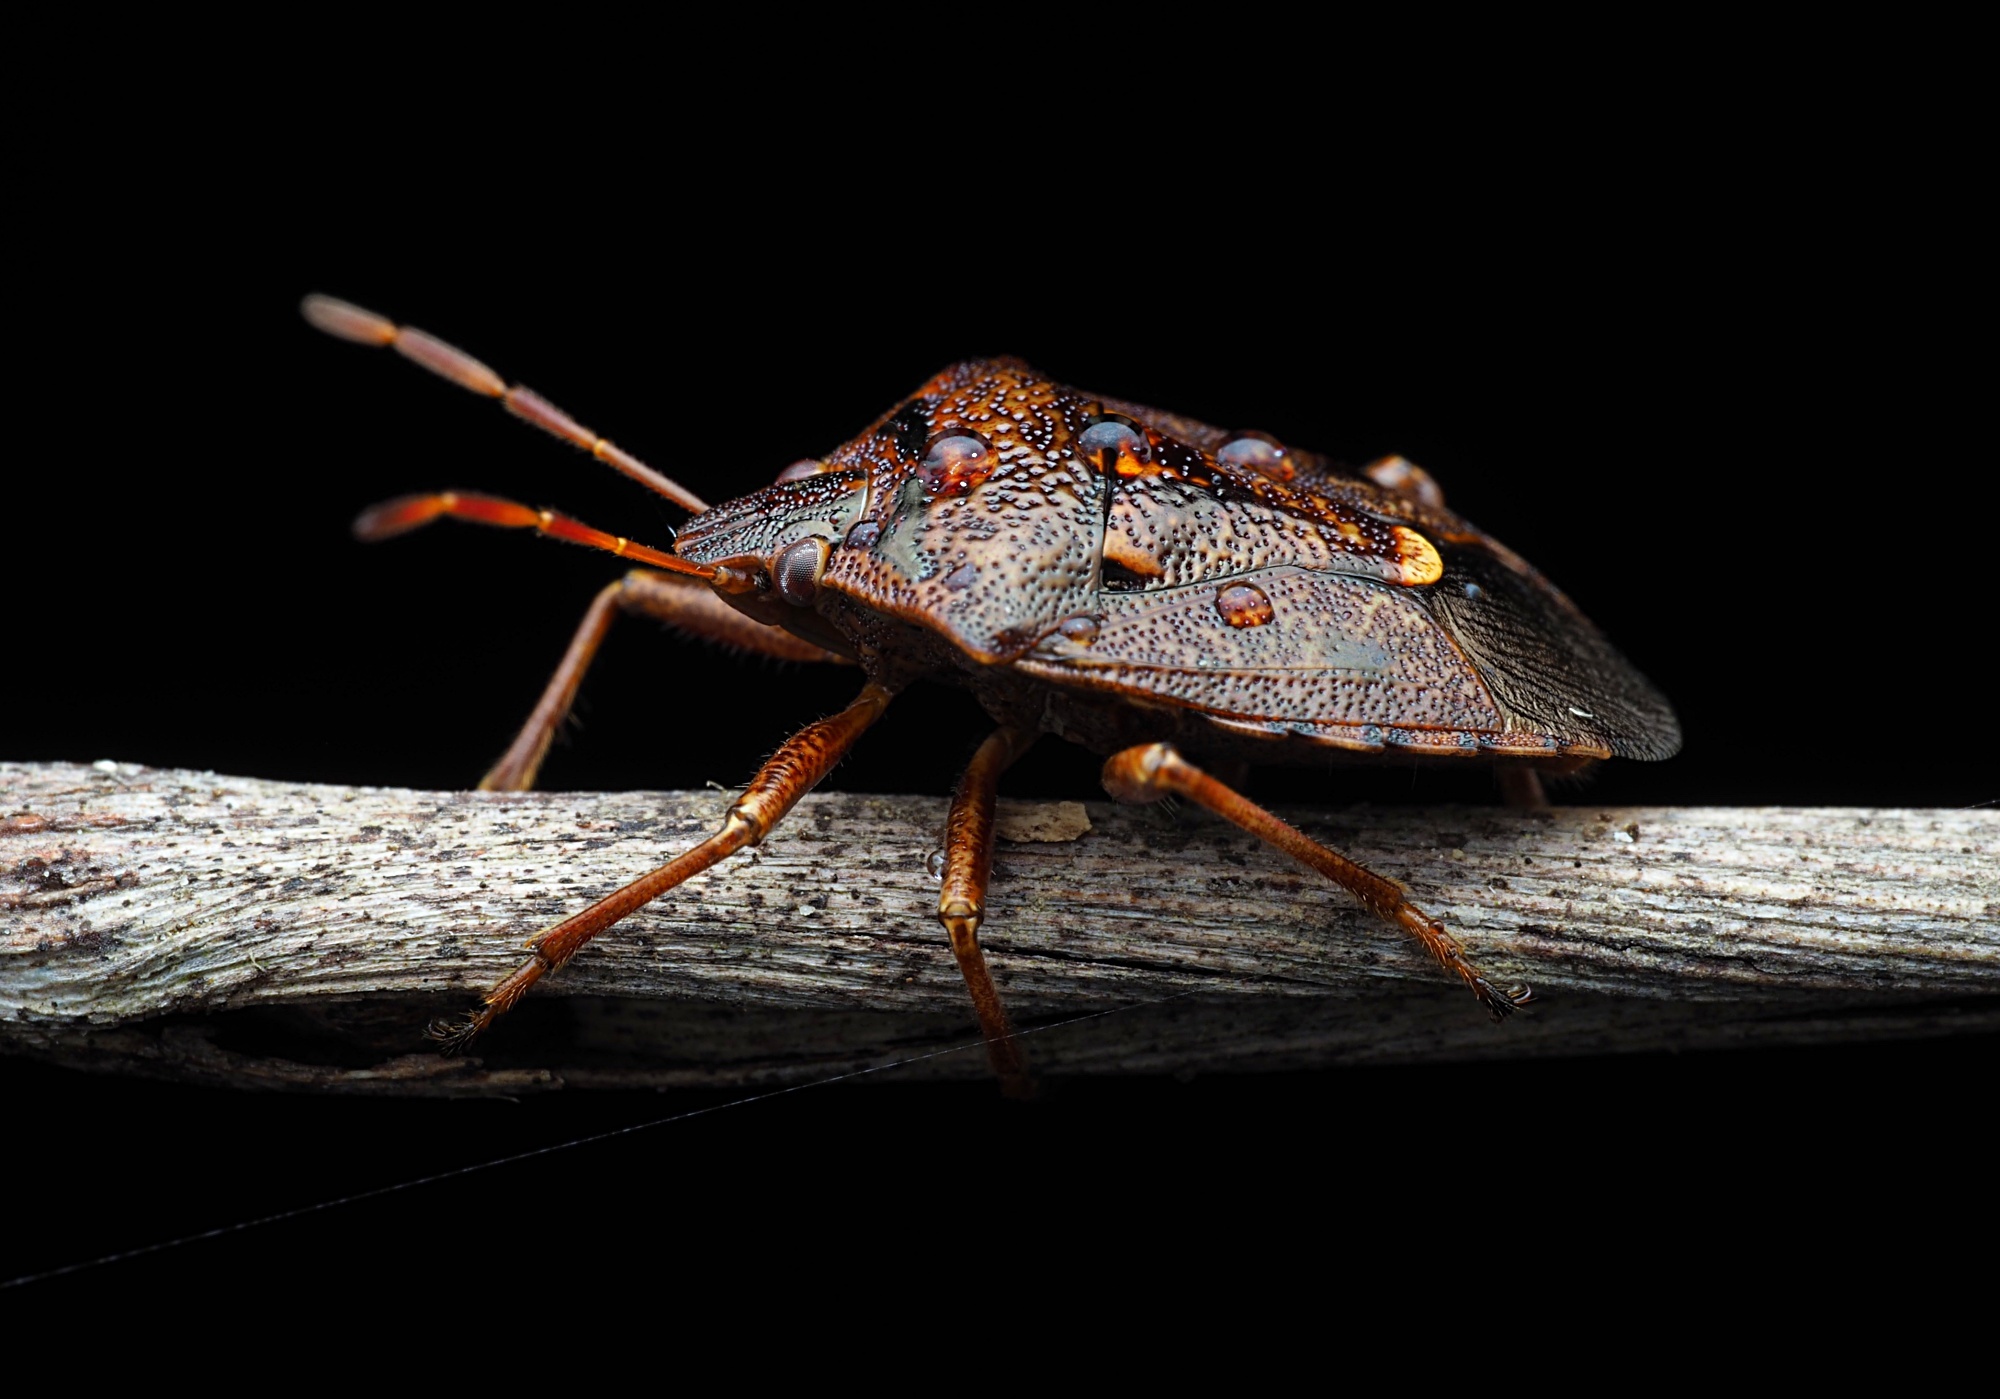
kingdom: Animalia
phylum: Arthropoda
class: Insecta
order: Hemiptera
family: Pentatomidae
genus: Cermatulus
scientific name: Cermatulus nasalis
